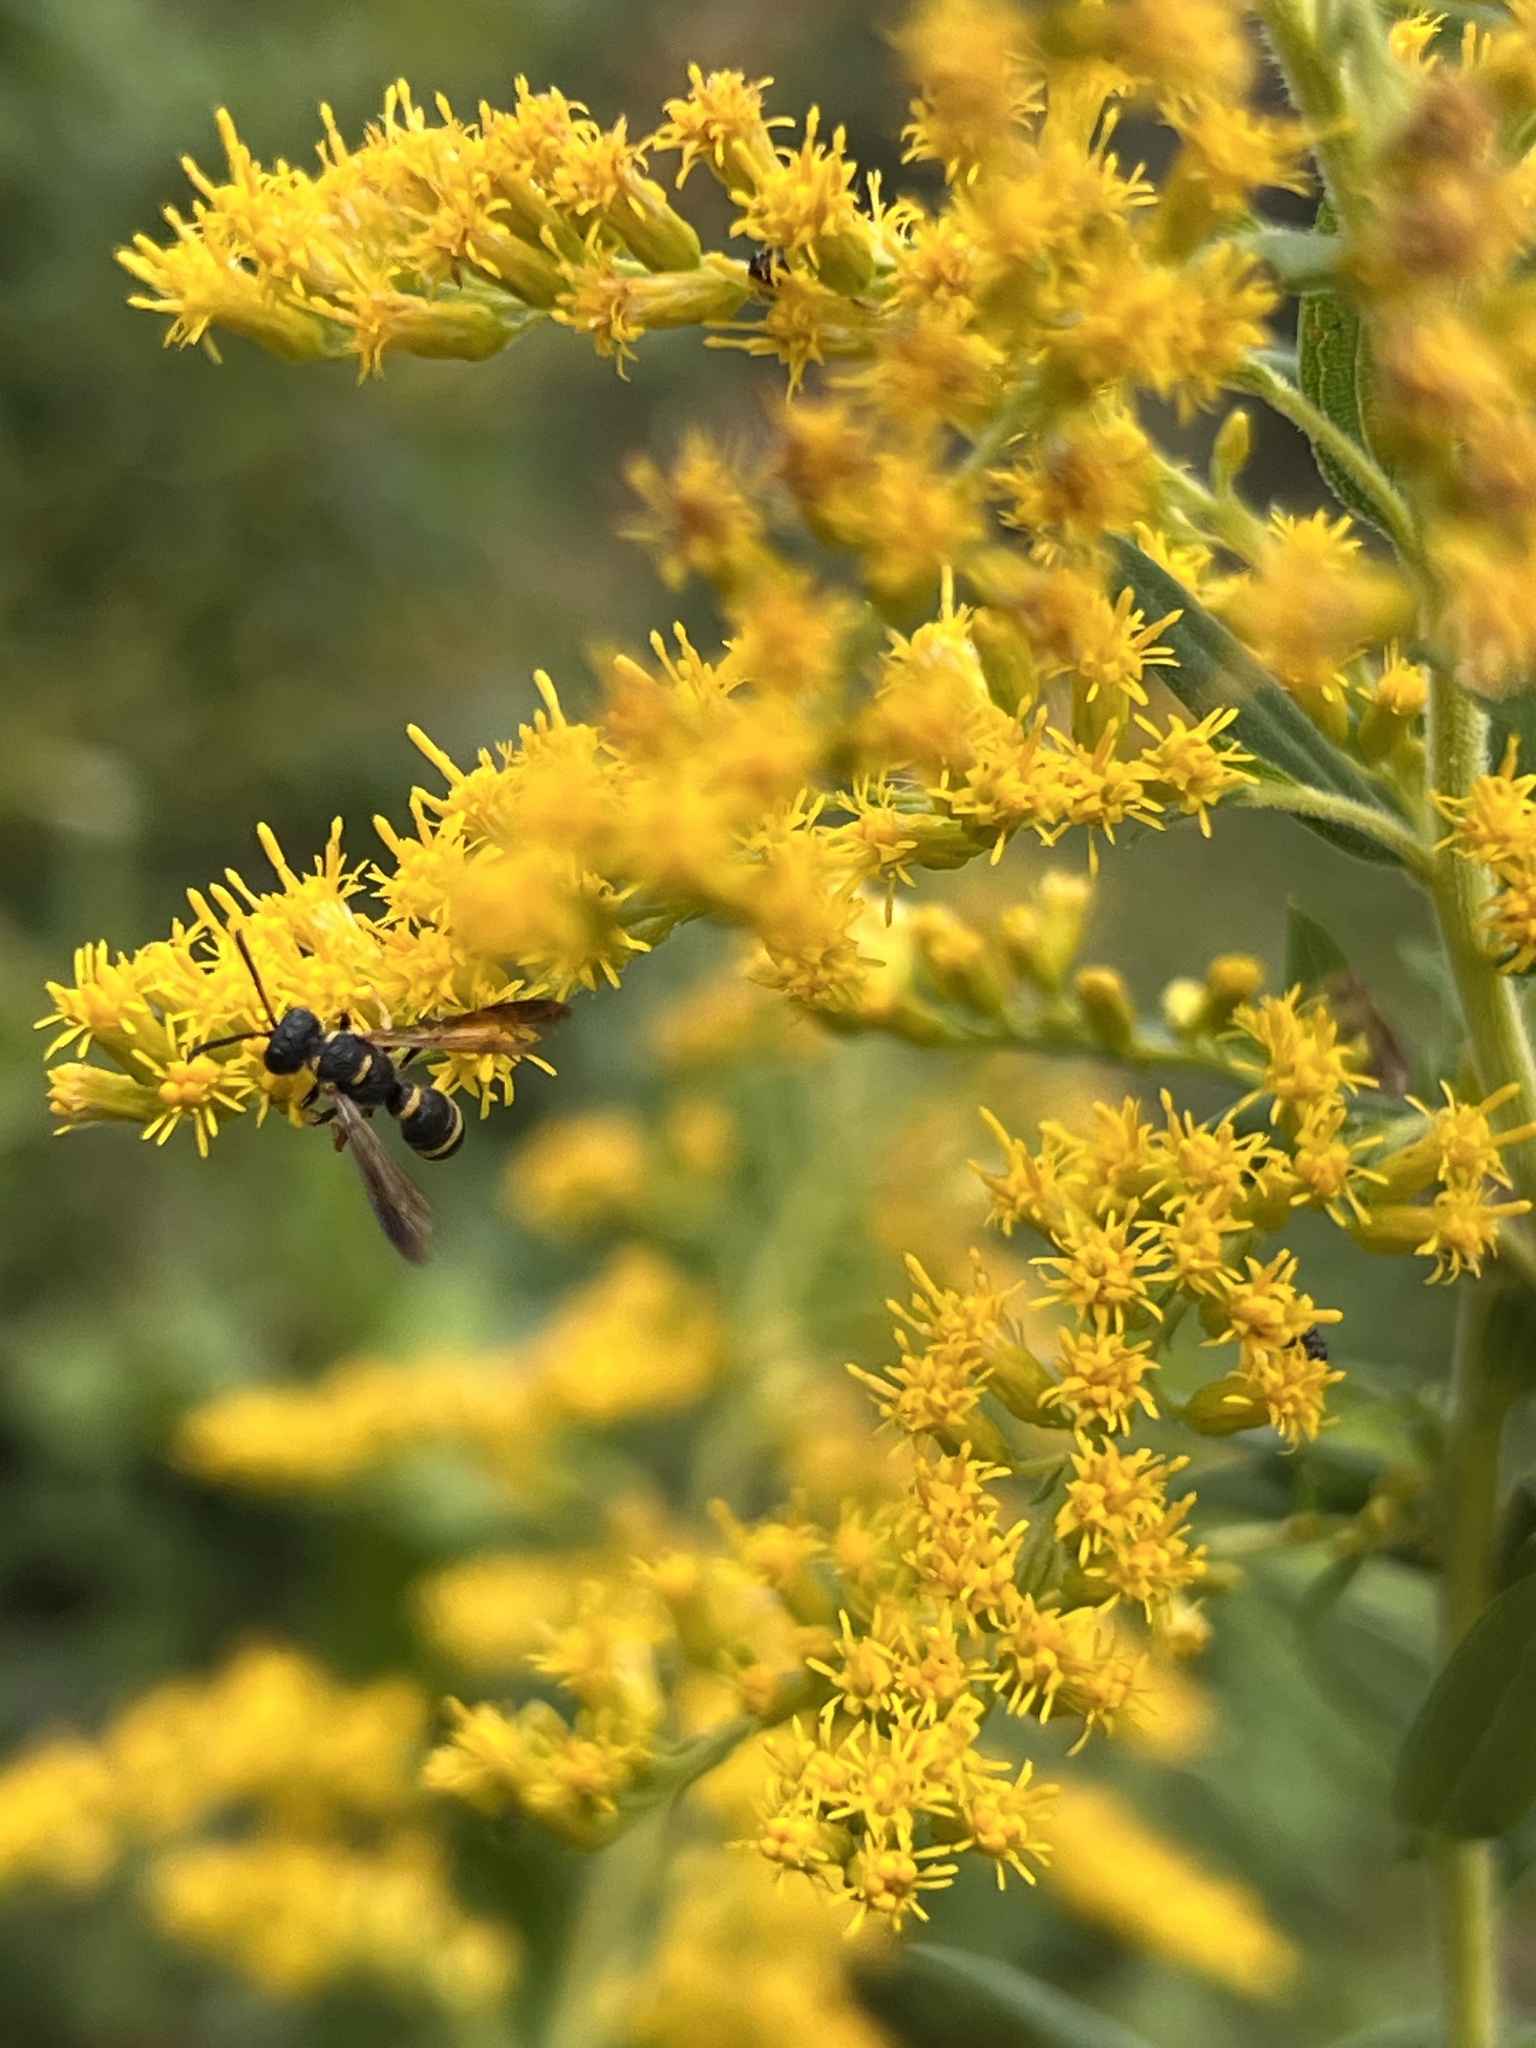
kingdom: Animalia
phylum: Arthropoda
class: Insecta
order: Hymenoptera
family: Crabronidae
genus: Cerceris
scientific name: Cerceris insolita
